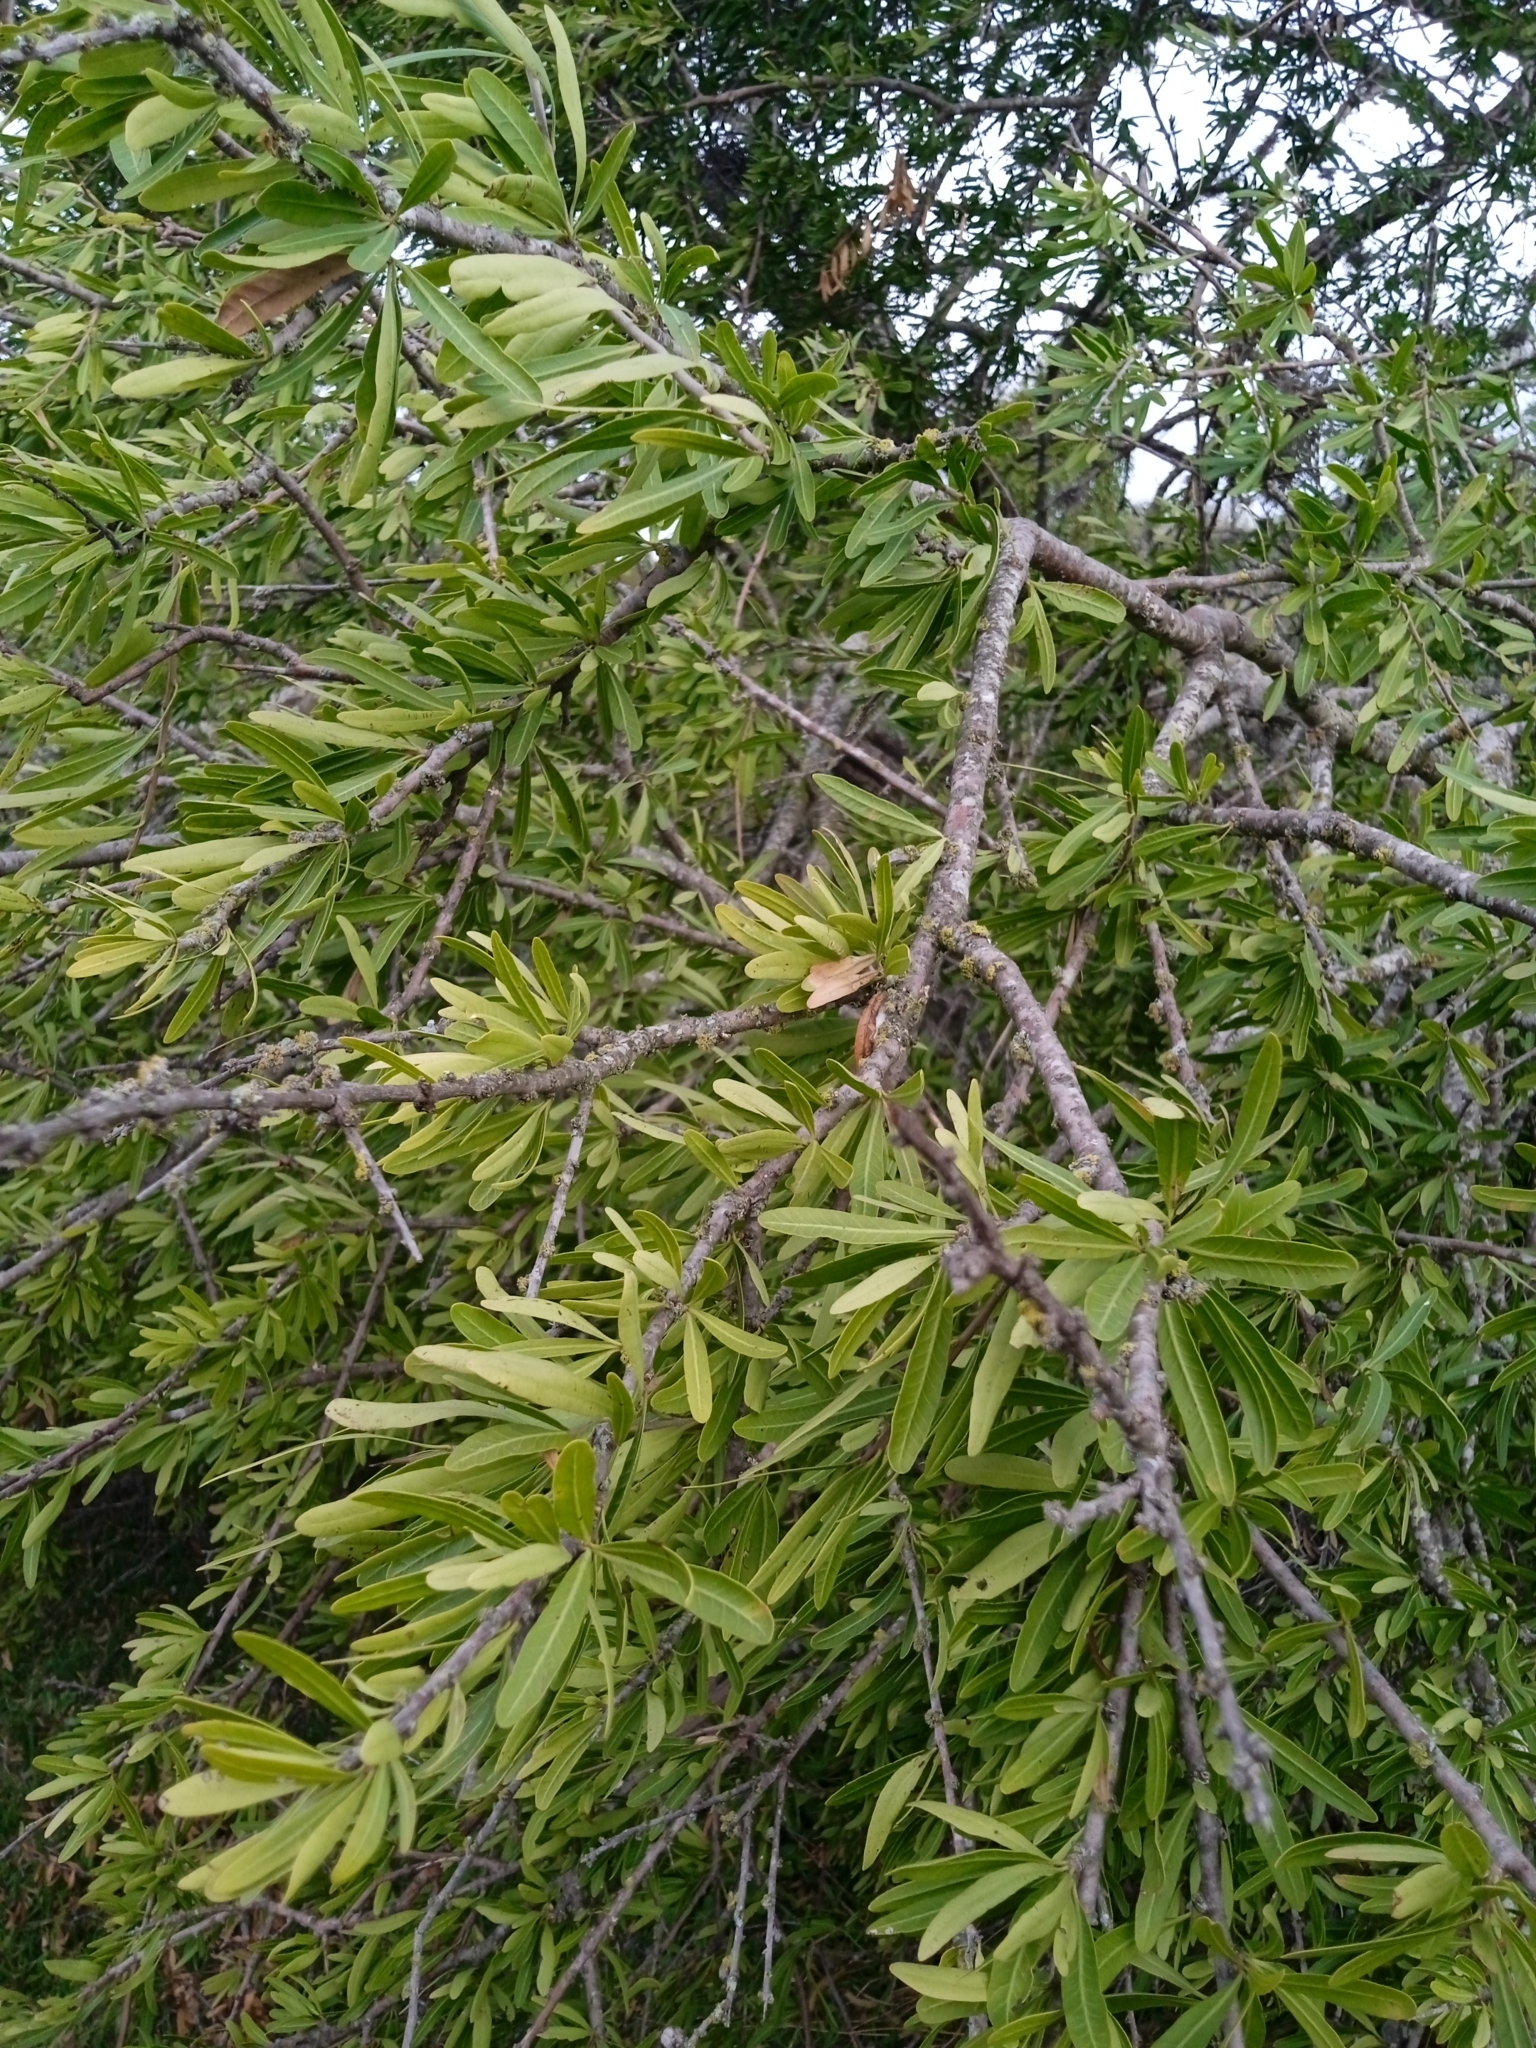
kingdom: Plantae
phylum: Tracheophyta
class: Magnoliopsida
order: Sapindales
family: Anacardiaceae
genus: Schinus
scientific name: Schinus longifolia
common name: Longleaf peppertree
